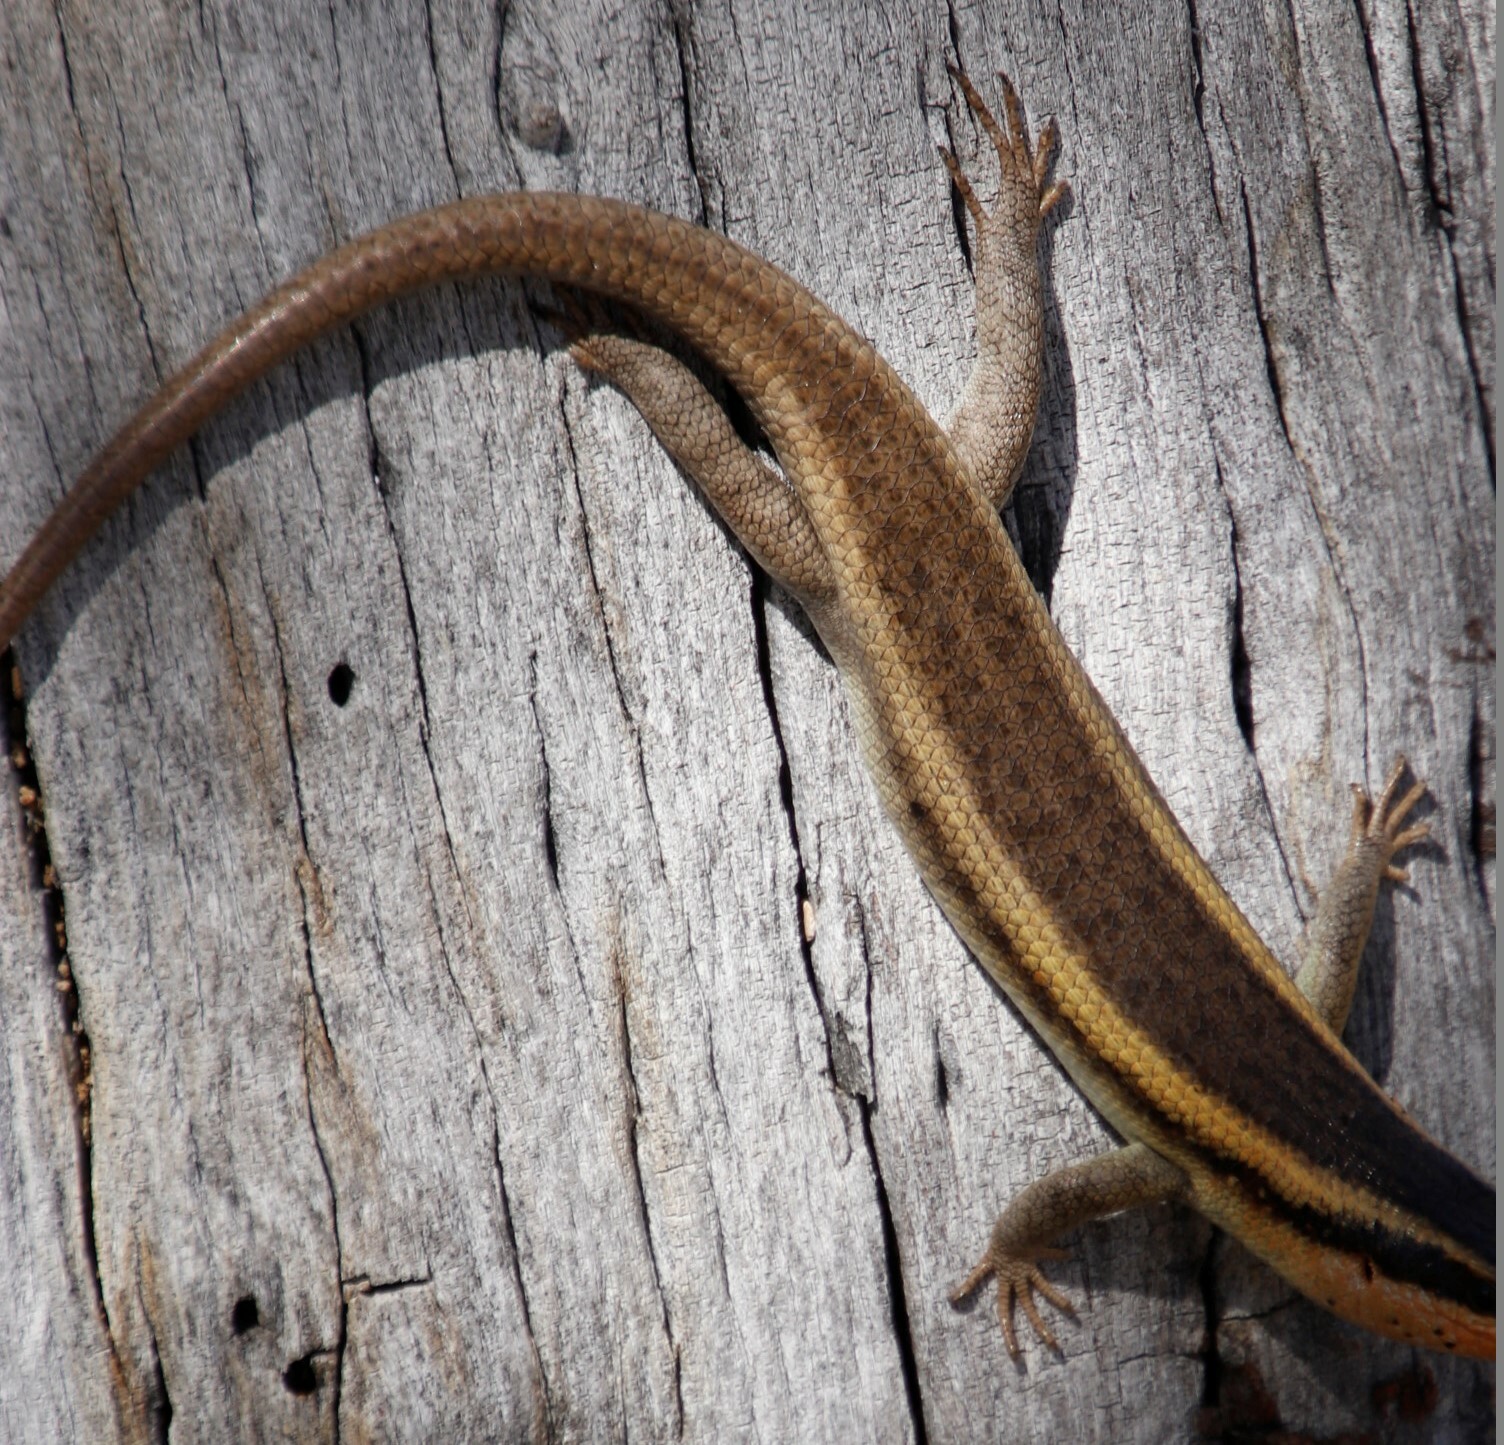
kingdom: Animalia
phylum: Chordata
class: Squamata
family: Scincidae
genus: Trachylepis
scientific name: Trachylepis wahlbergii
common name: Wahlberg’s striped skink
